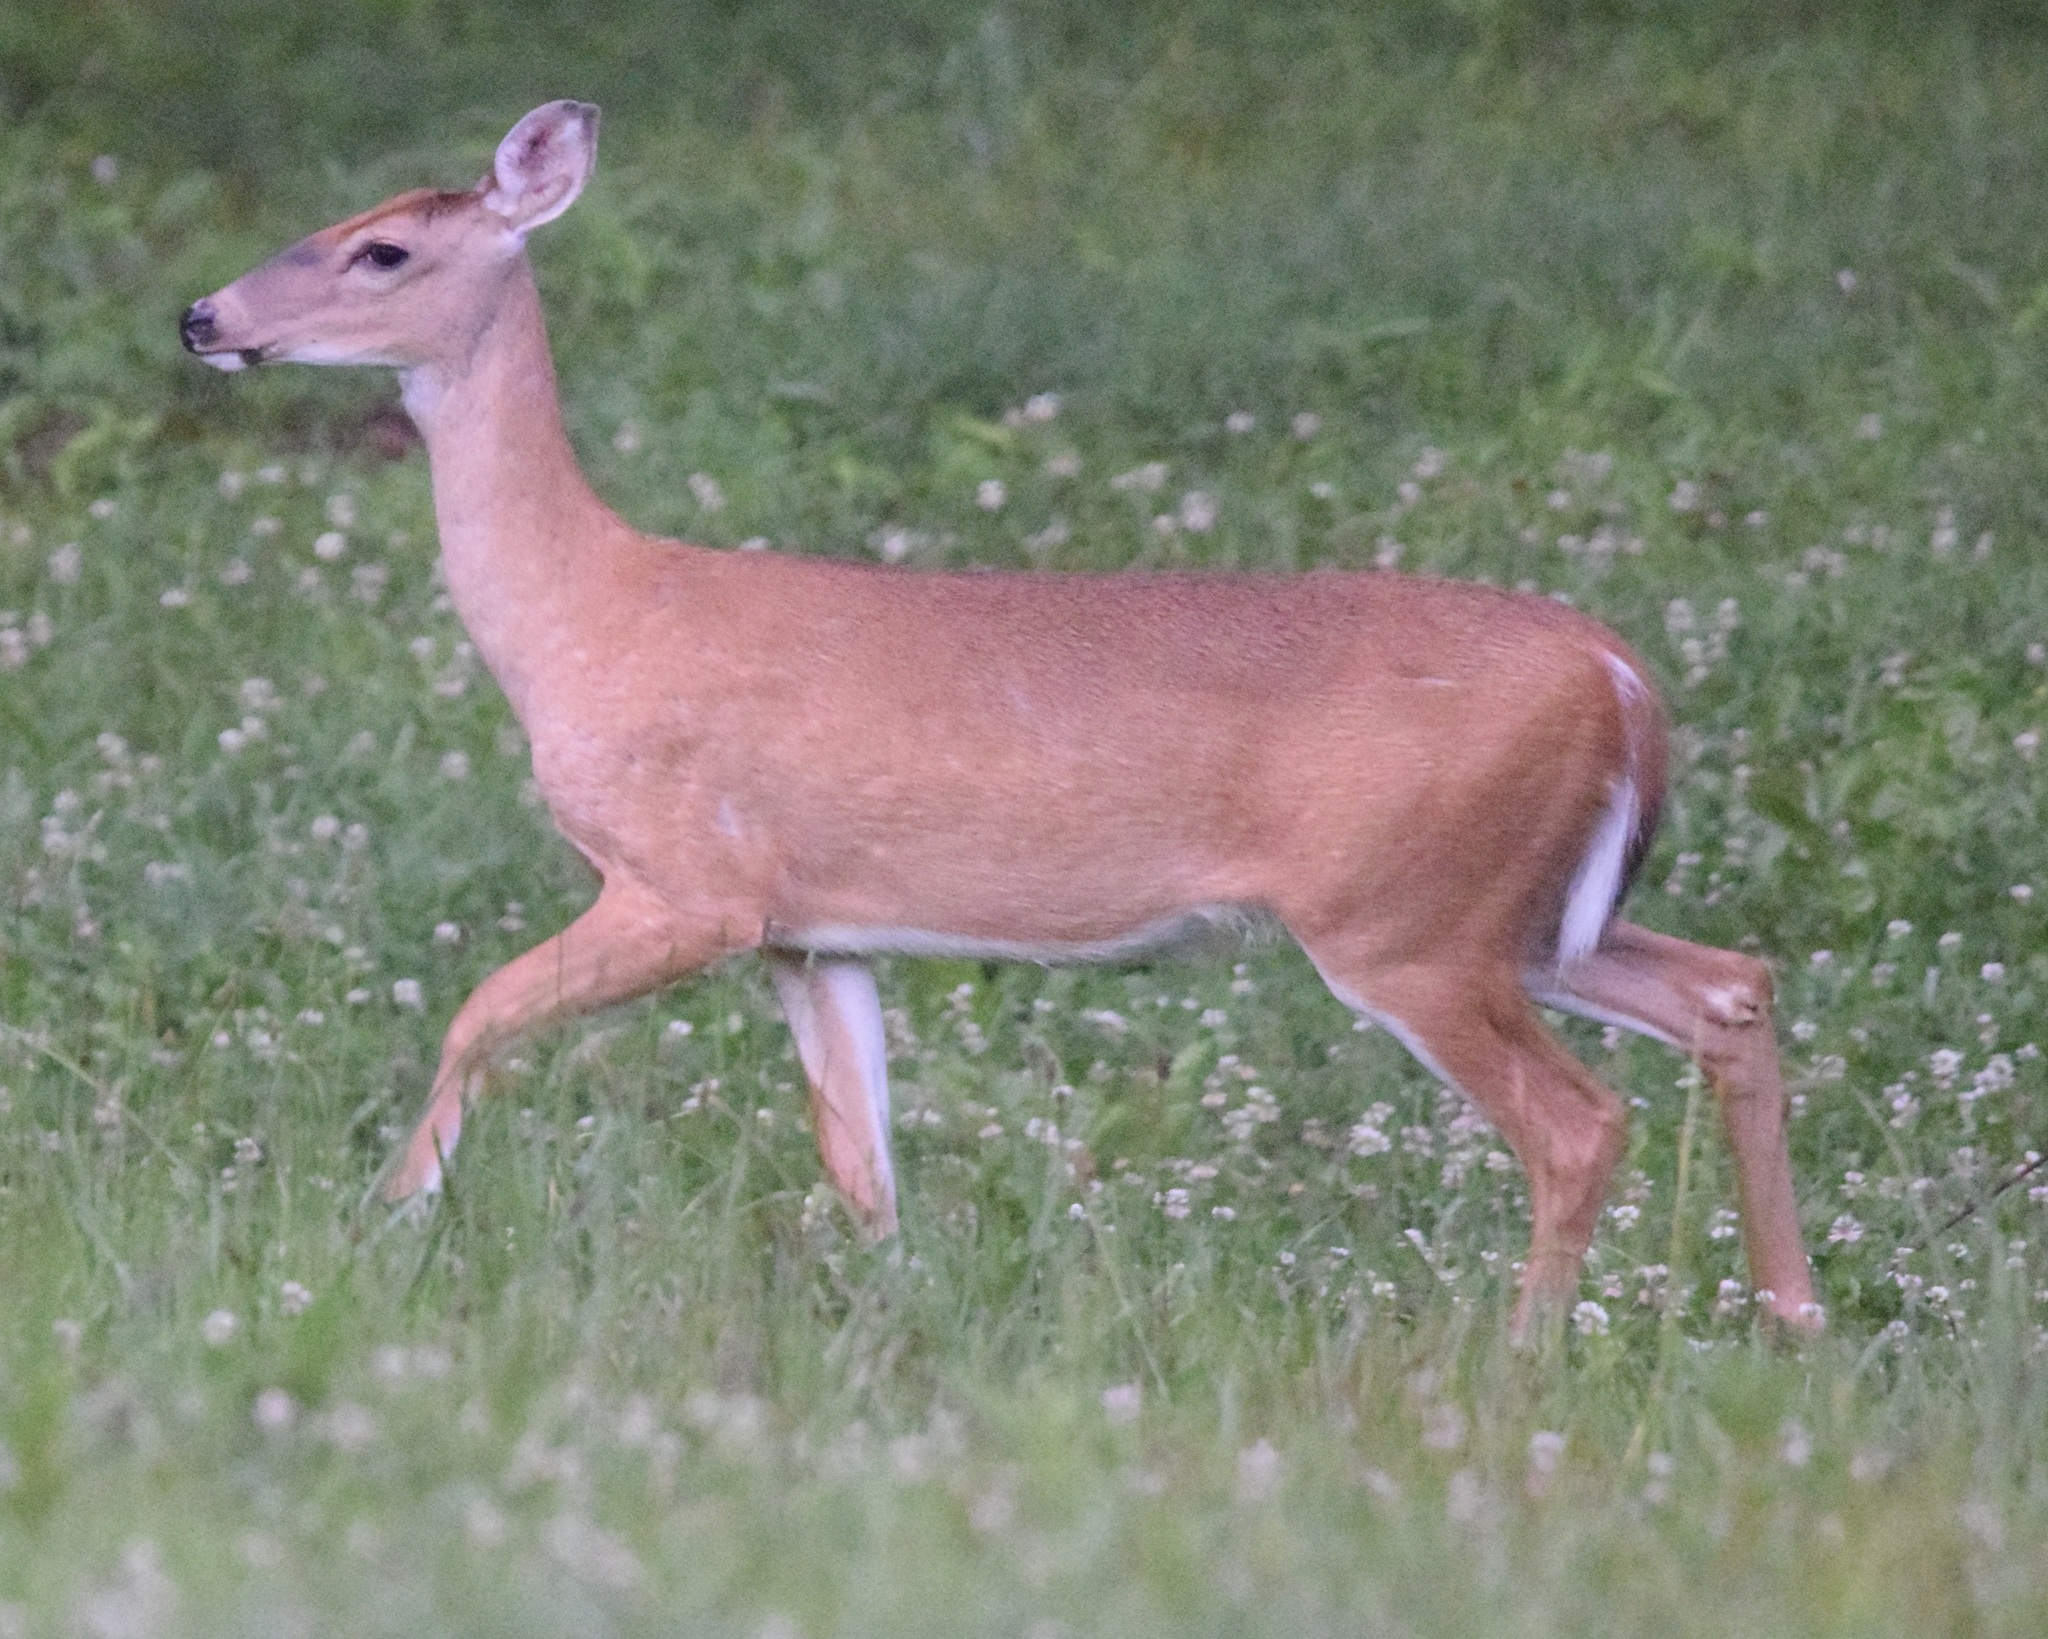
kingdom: Animalia
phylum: Chordata
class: Mammalia
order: Artiodactyla
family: Cervidae
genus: Odocoileus
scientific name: Odocoileus virginianus
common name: White-tailed deer
